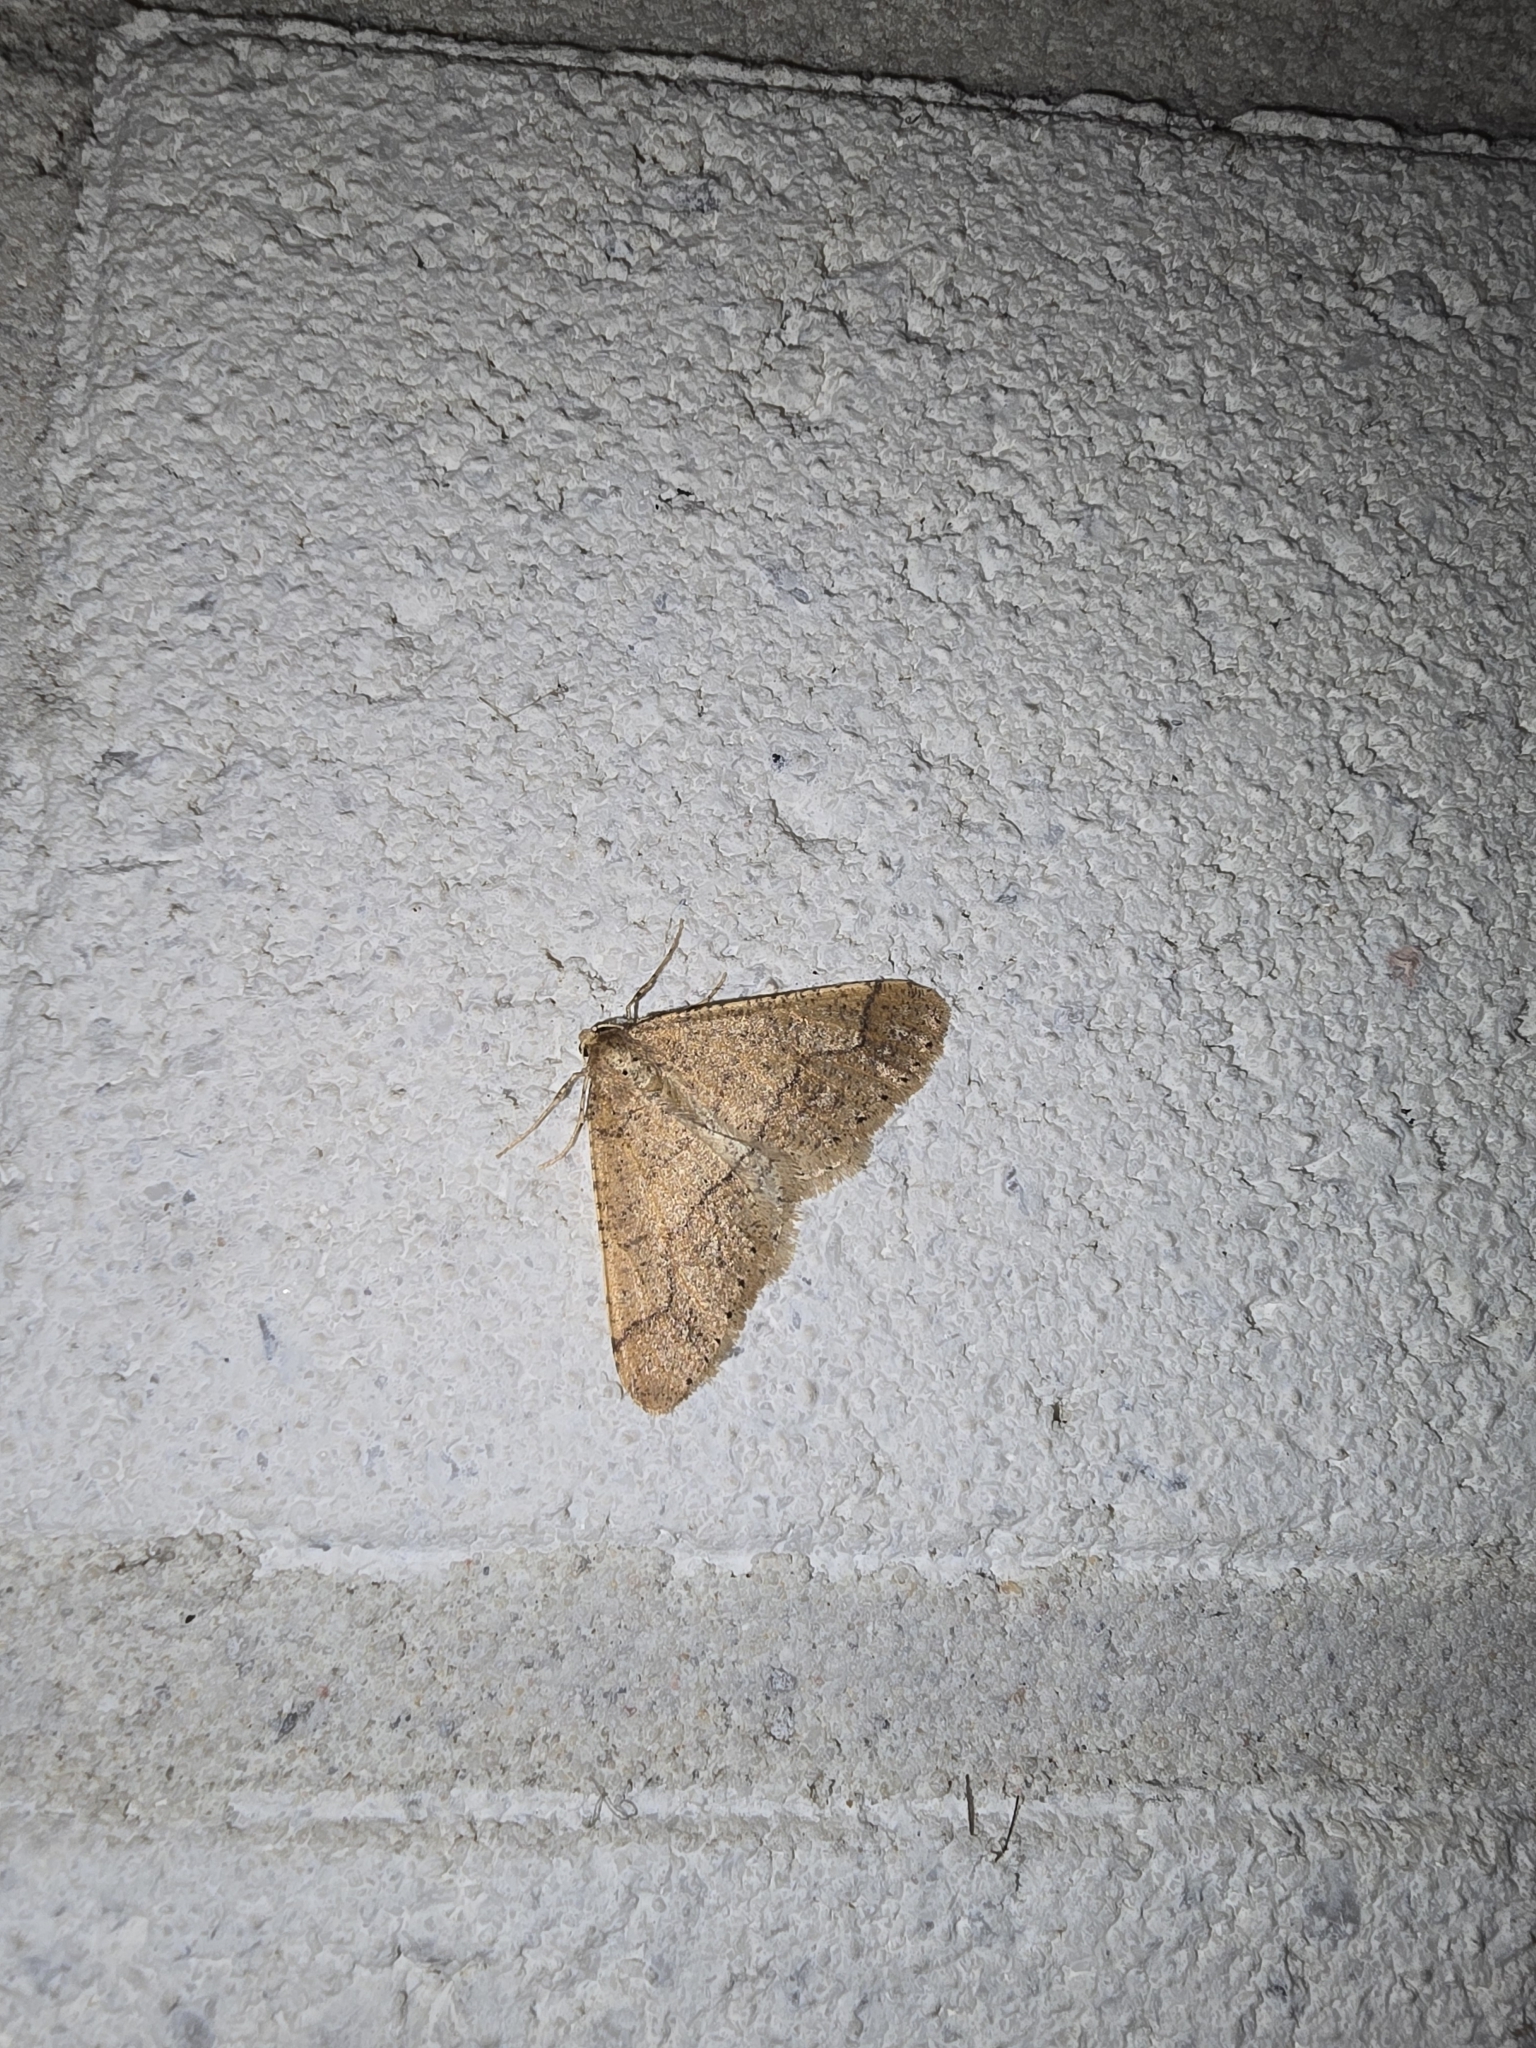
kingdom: Animalia
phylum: Arthropoda
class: Insecta
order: Lepidoptera
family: Geometridae
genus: Agriopis
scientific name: Agriopis marginaria
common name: Dotted border
